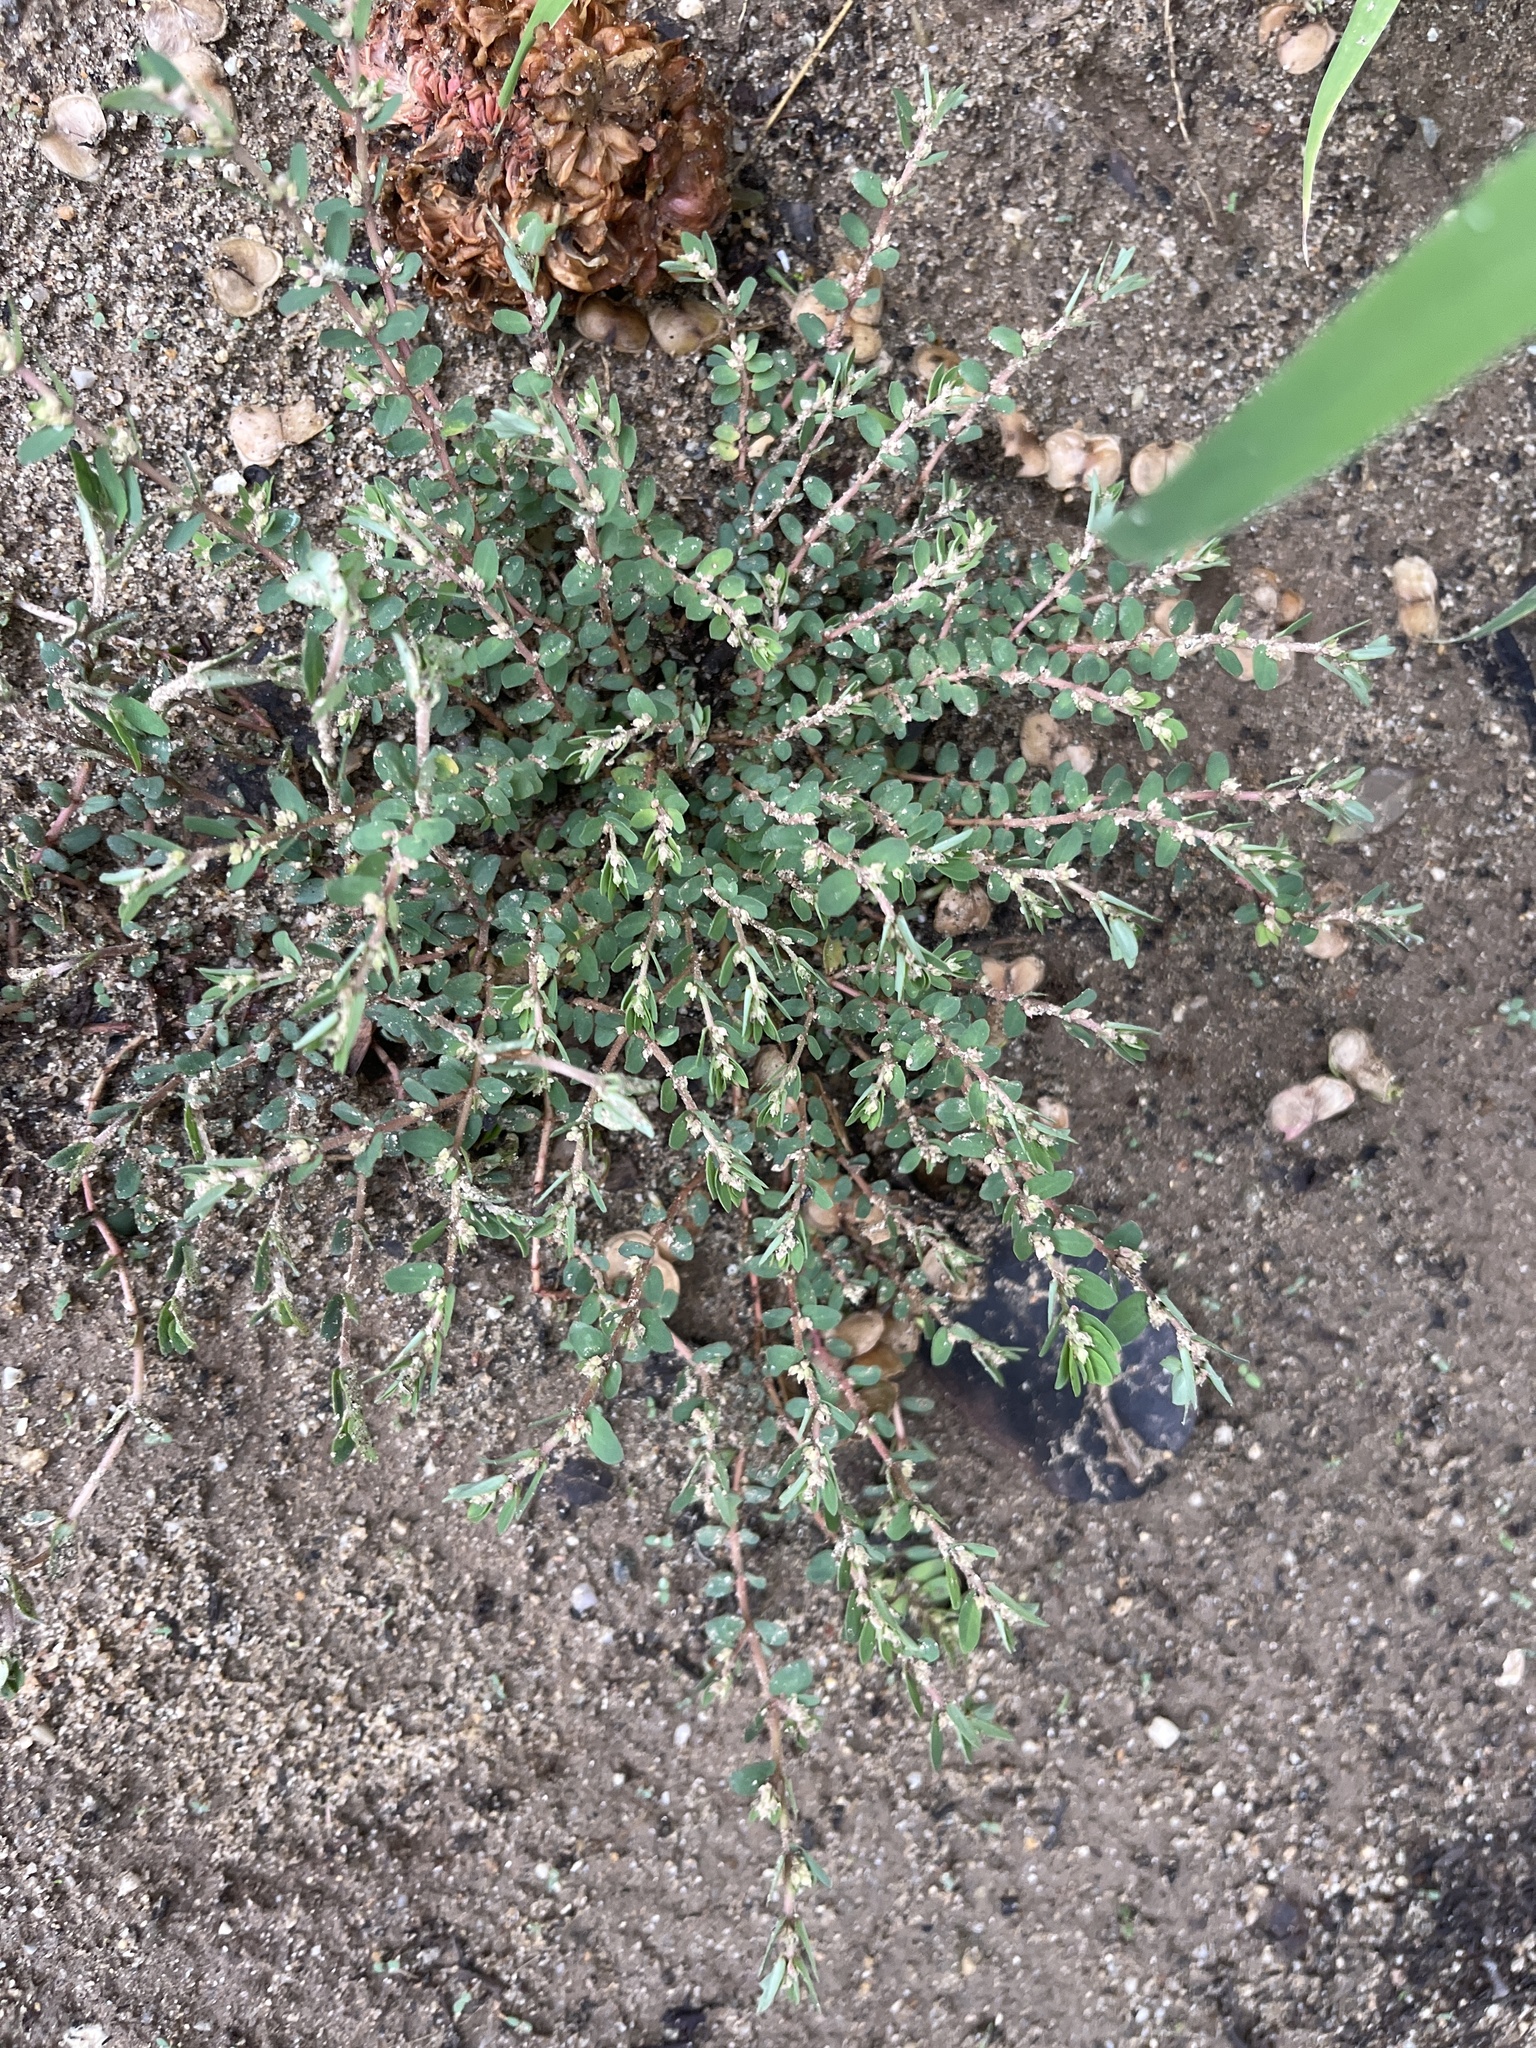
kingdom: Plantae
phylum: Tracheophyta
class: Magnoliopsida
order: Malpighiales
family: Euphorbiaceae
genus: Euphorbia
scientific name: Euphorbia thymifolia
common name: Gulf sandmat
